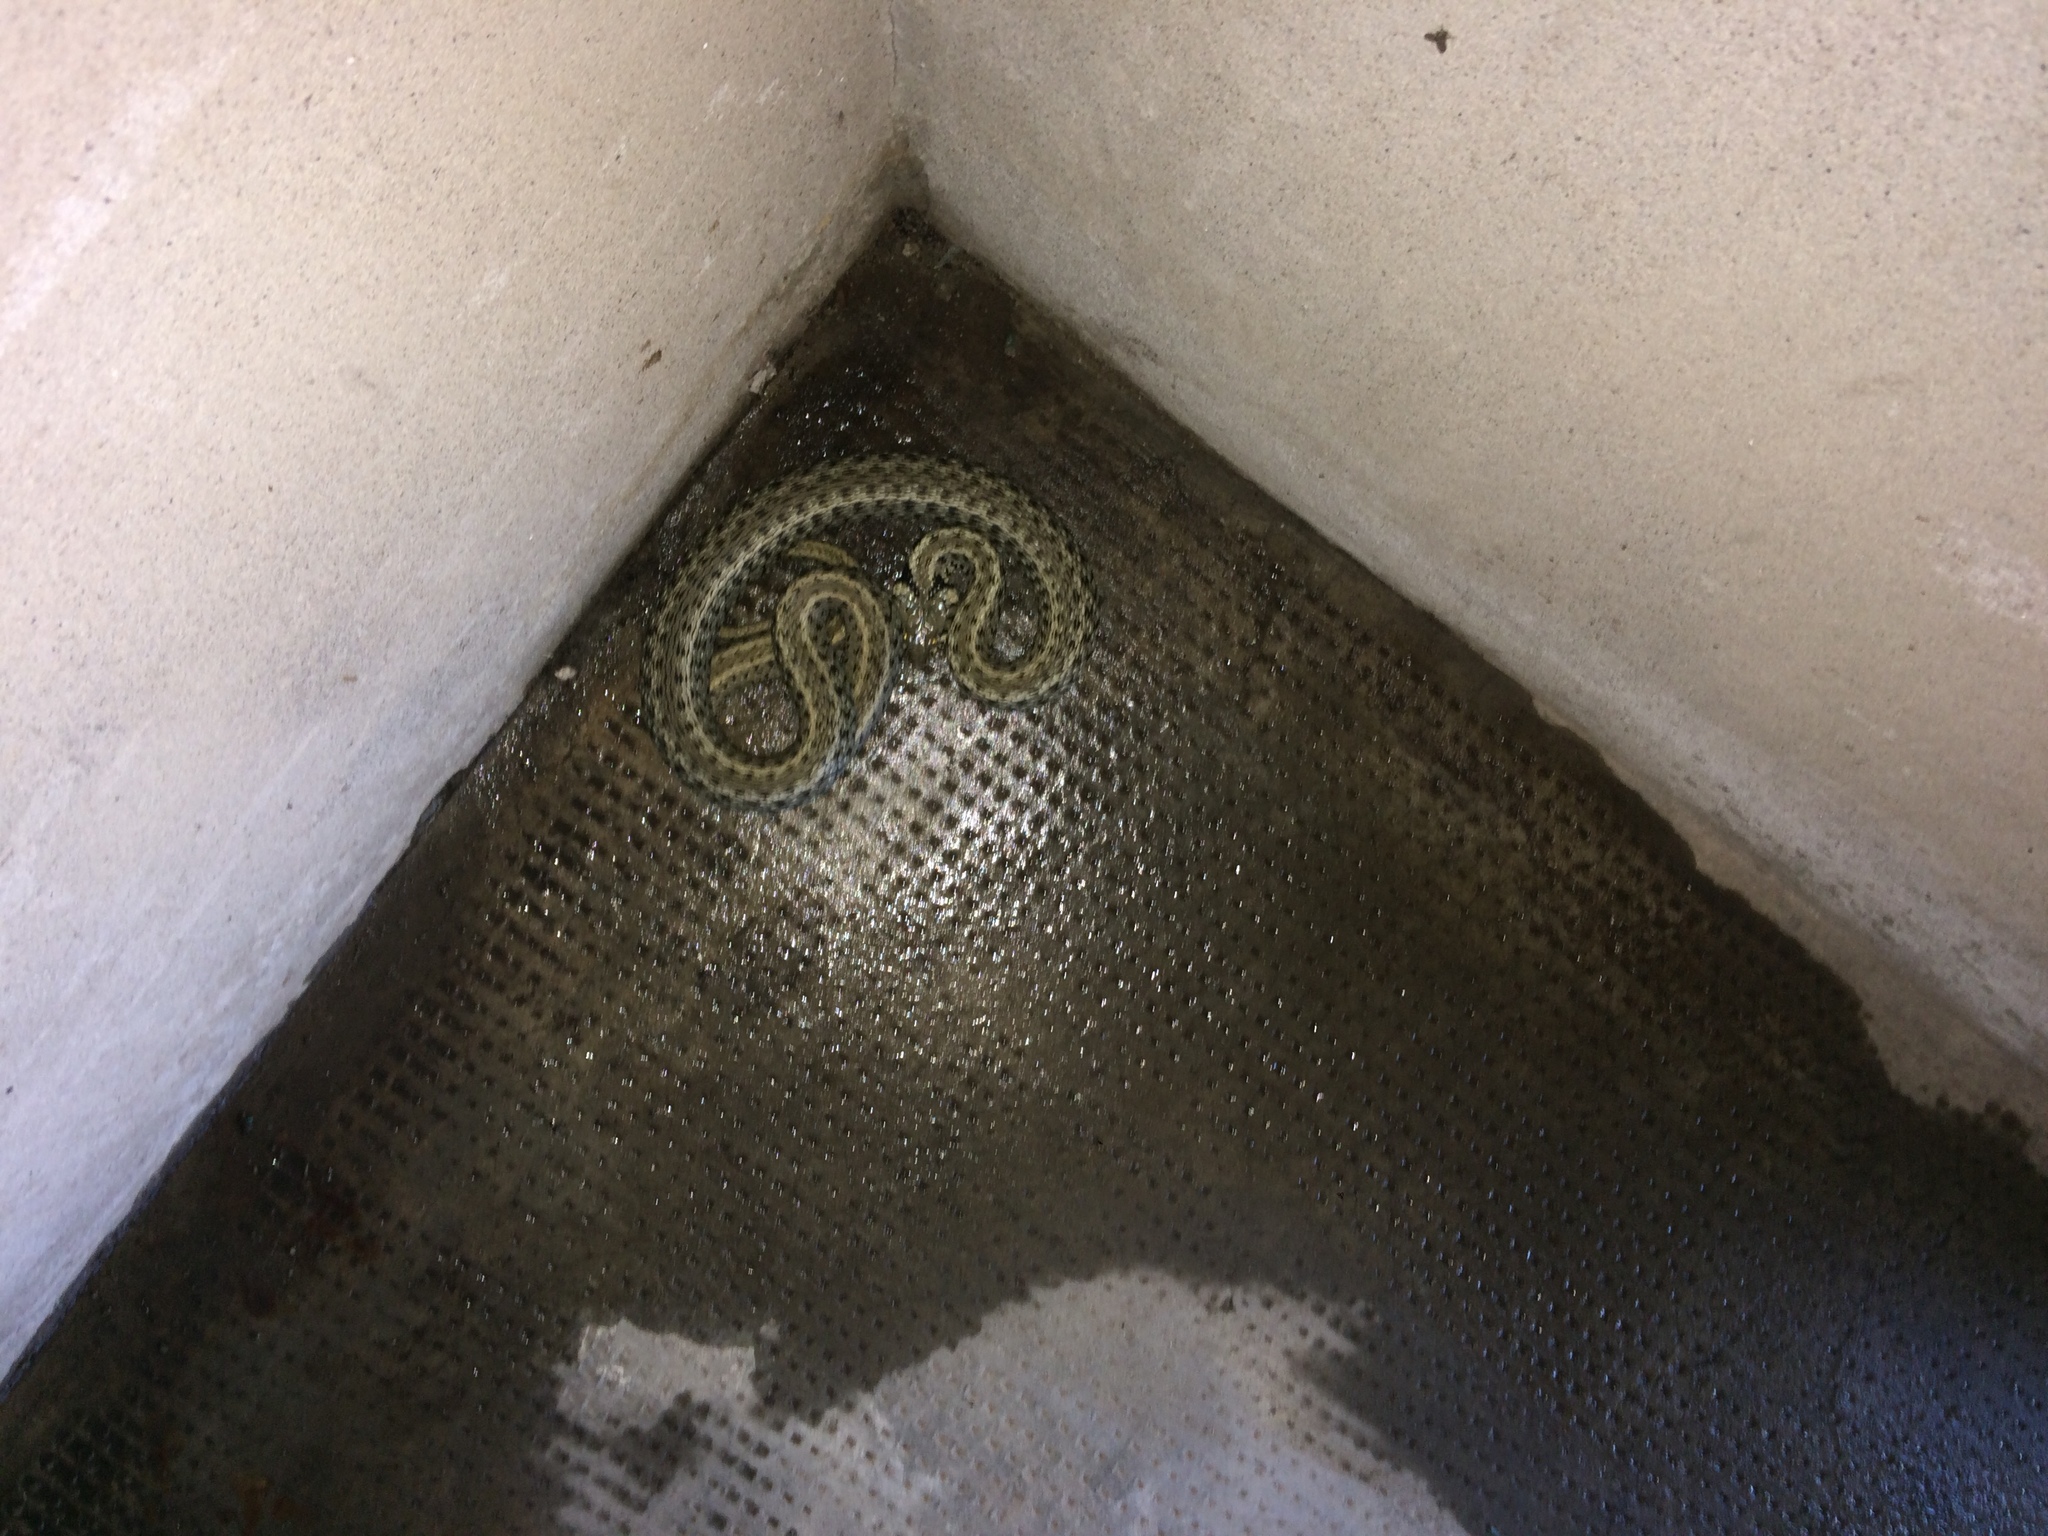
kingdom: Animalia
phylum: Chordata
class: Squamata
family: Colubridae
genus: Natrix
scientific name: Natrix natrix
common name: Grass snake
